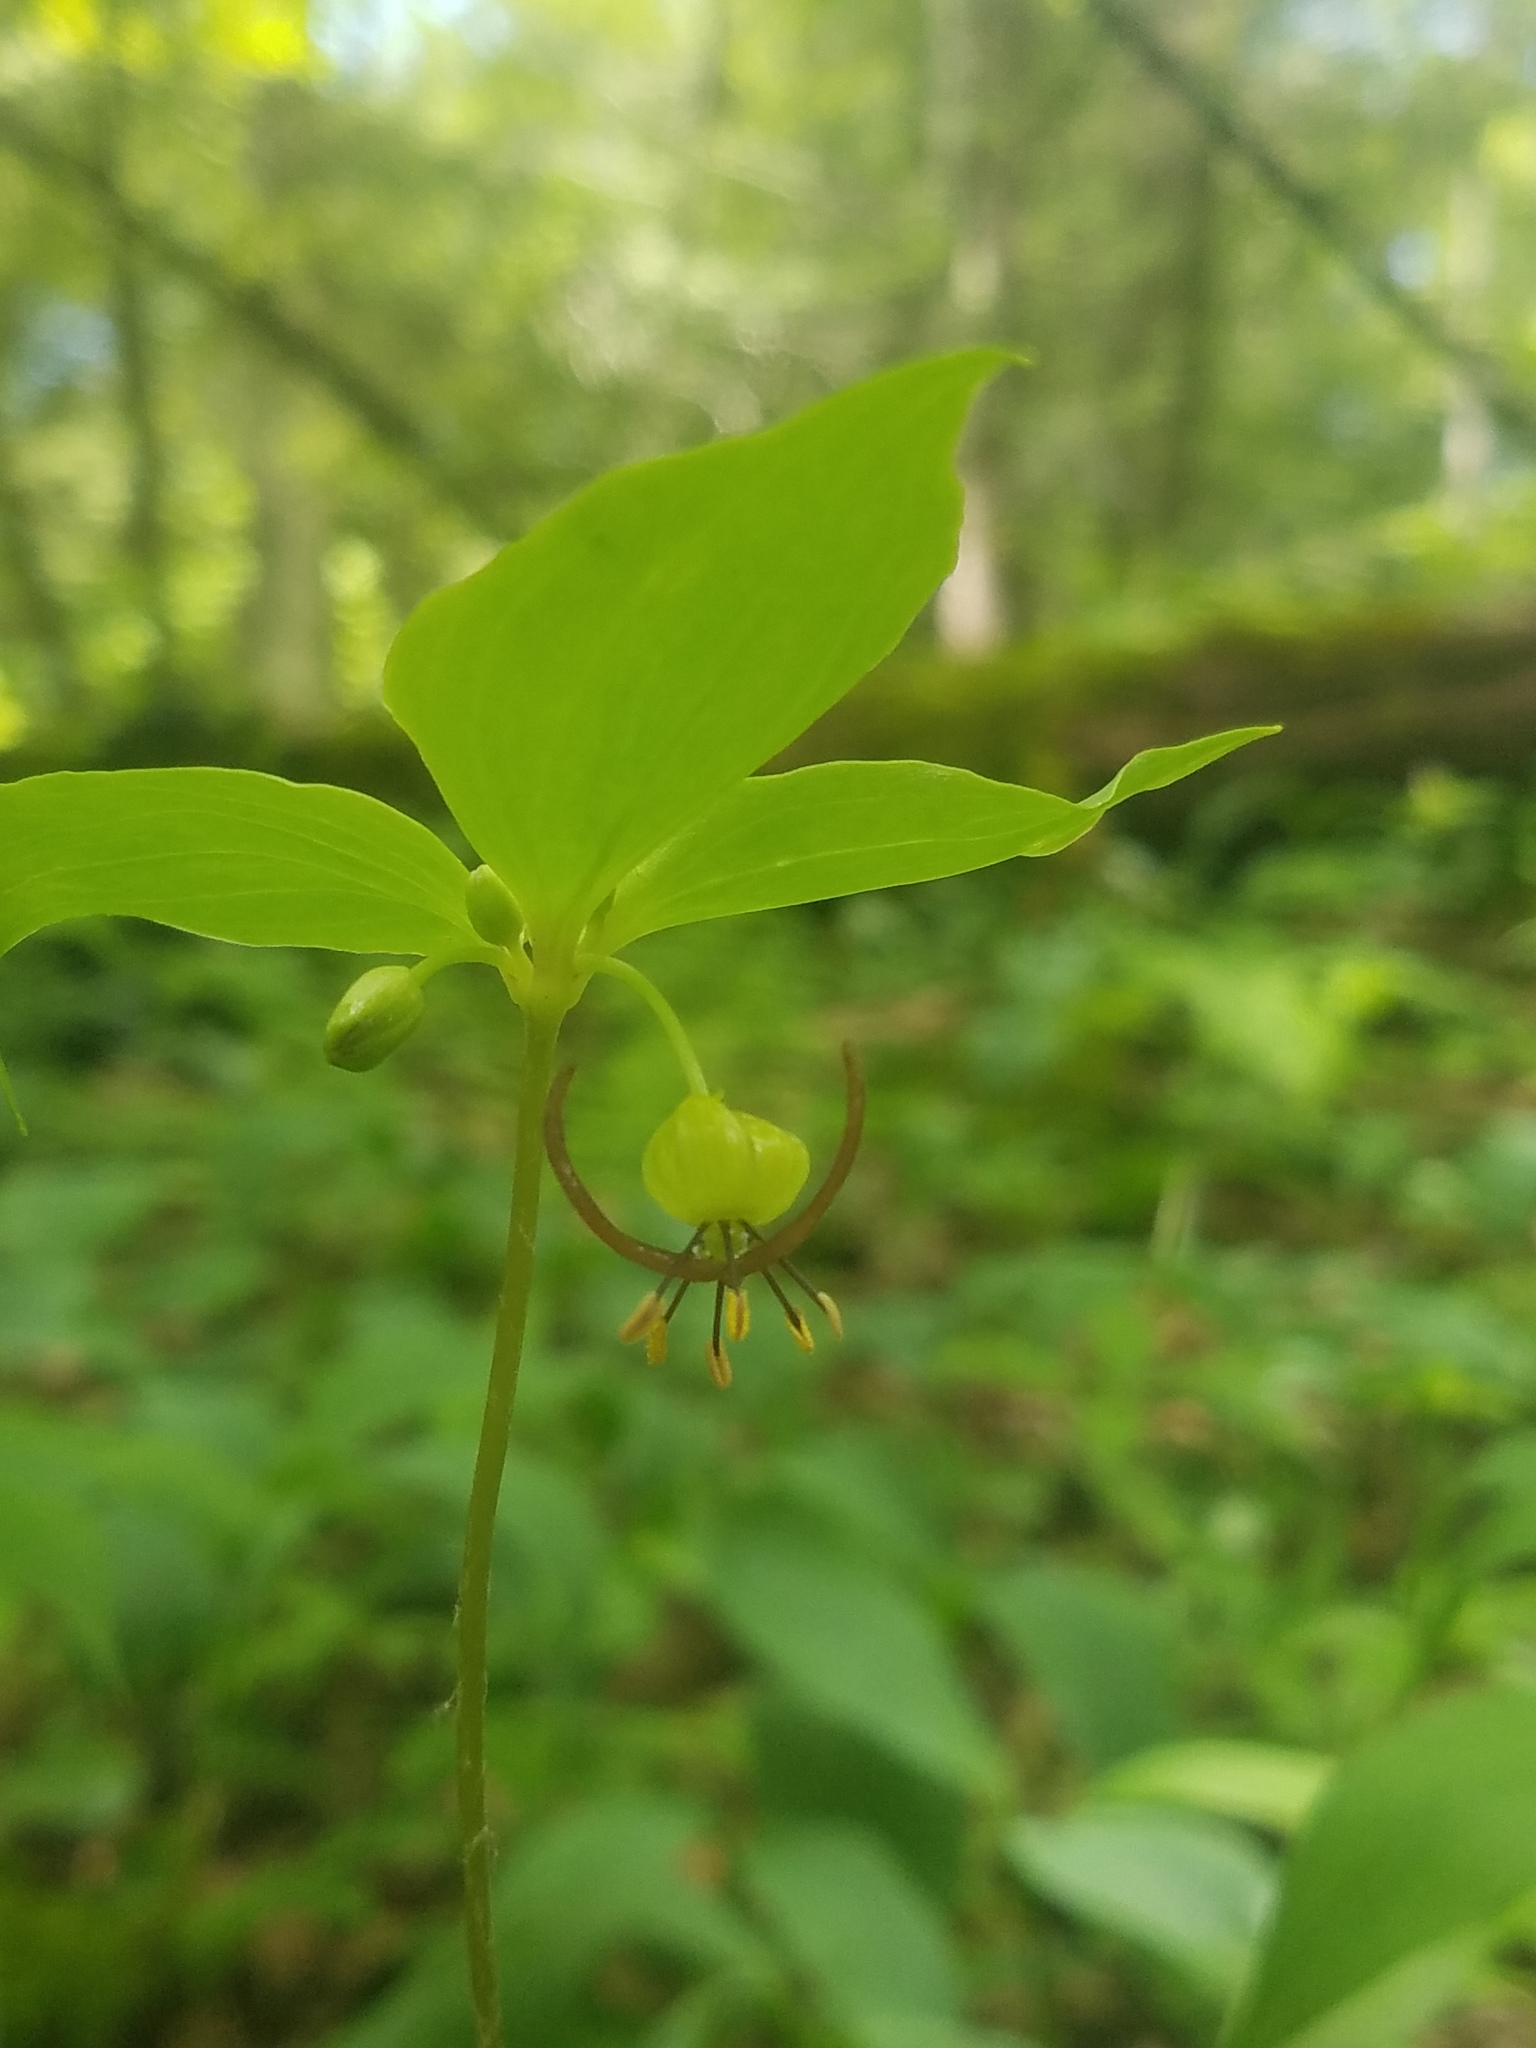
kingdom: Plantae
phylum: Tracheophyta
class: Liliopsida
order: Liliales
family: Liliaceae
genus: Medeola
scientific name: Medeola virginiana
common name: Indian cucumber-root
